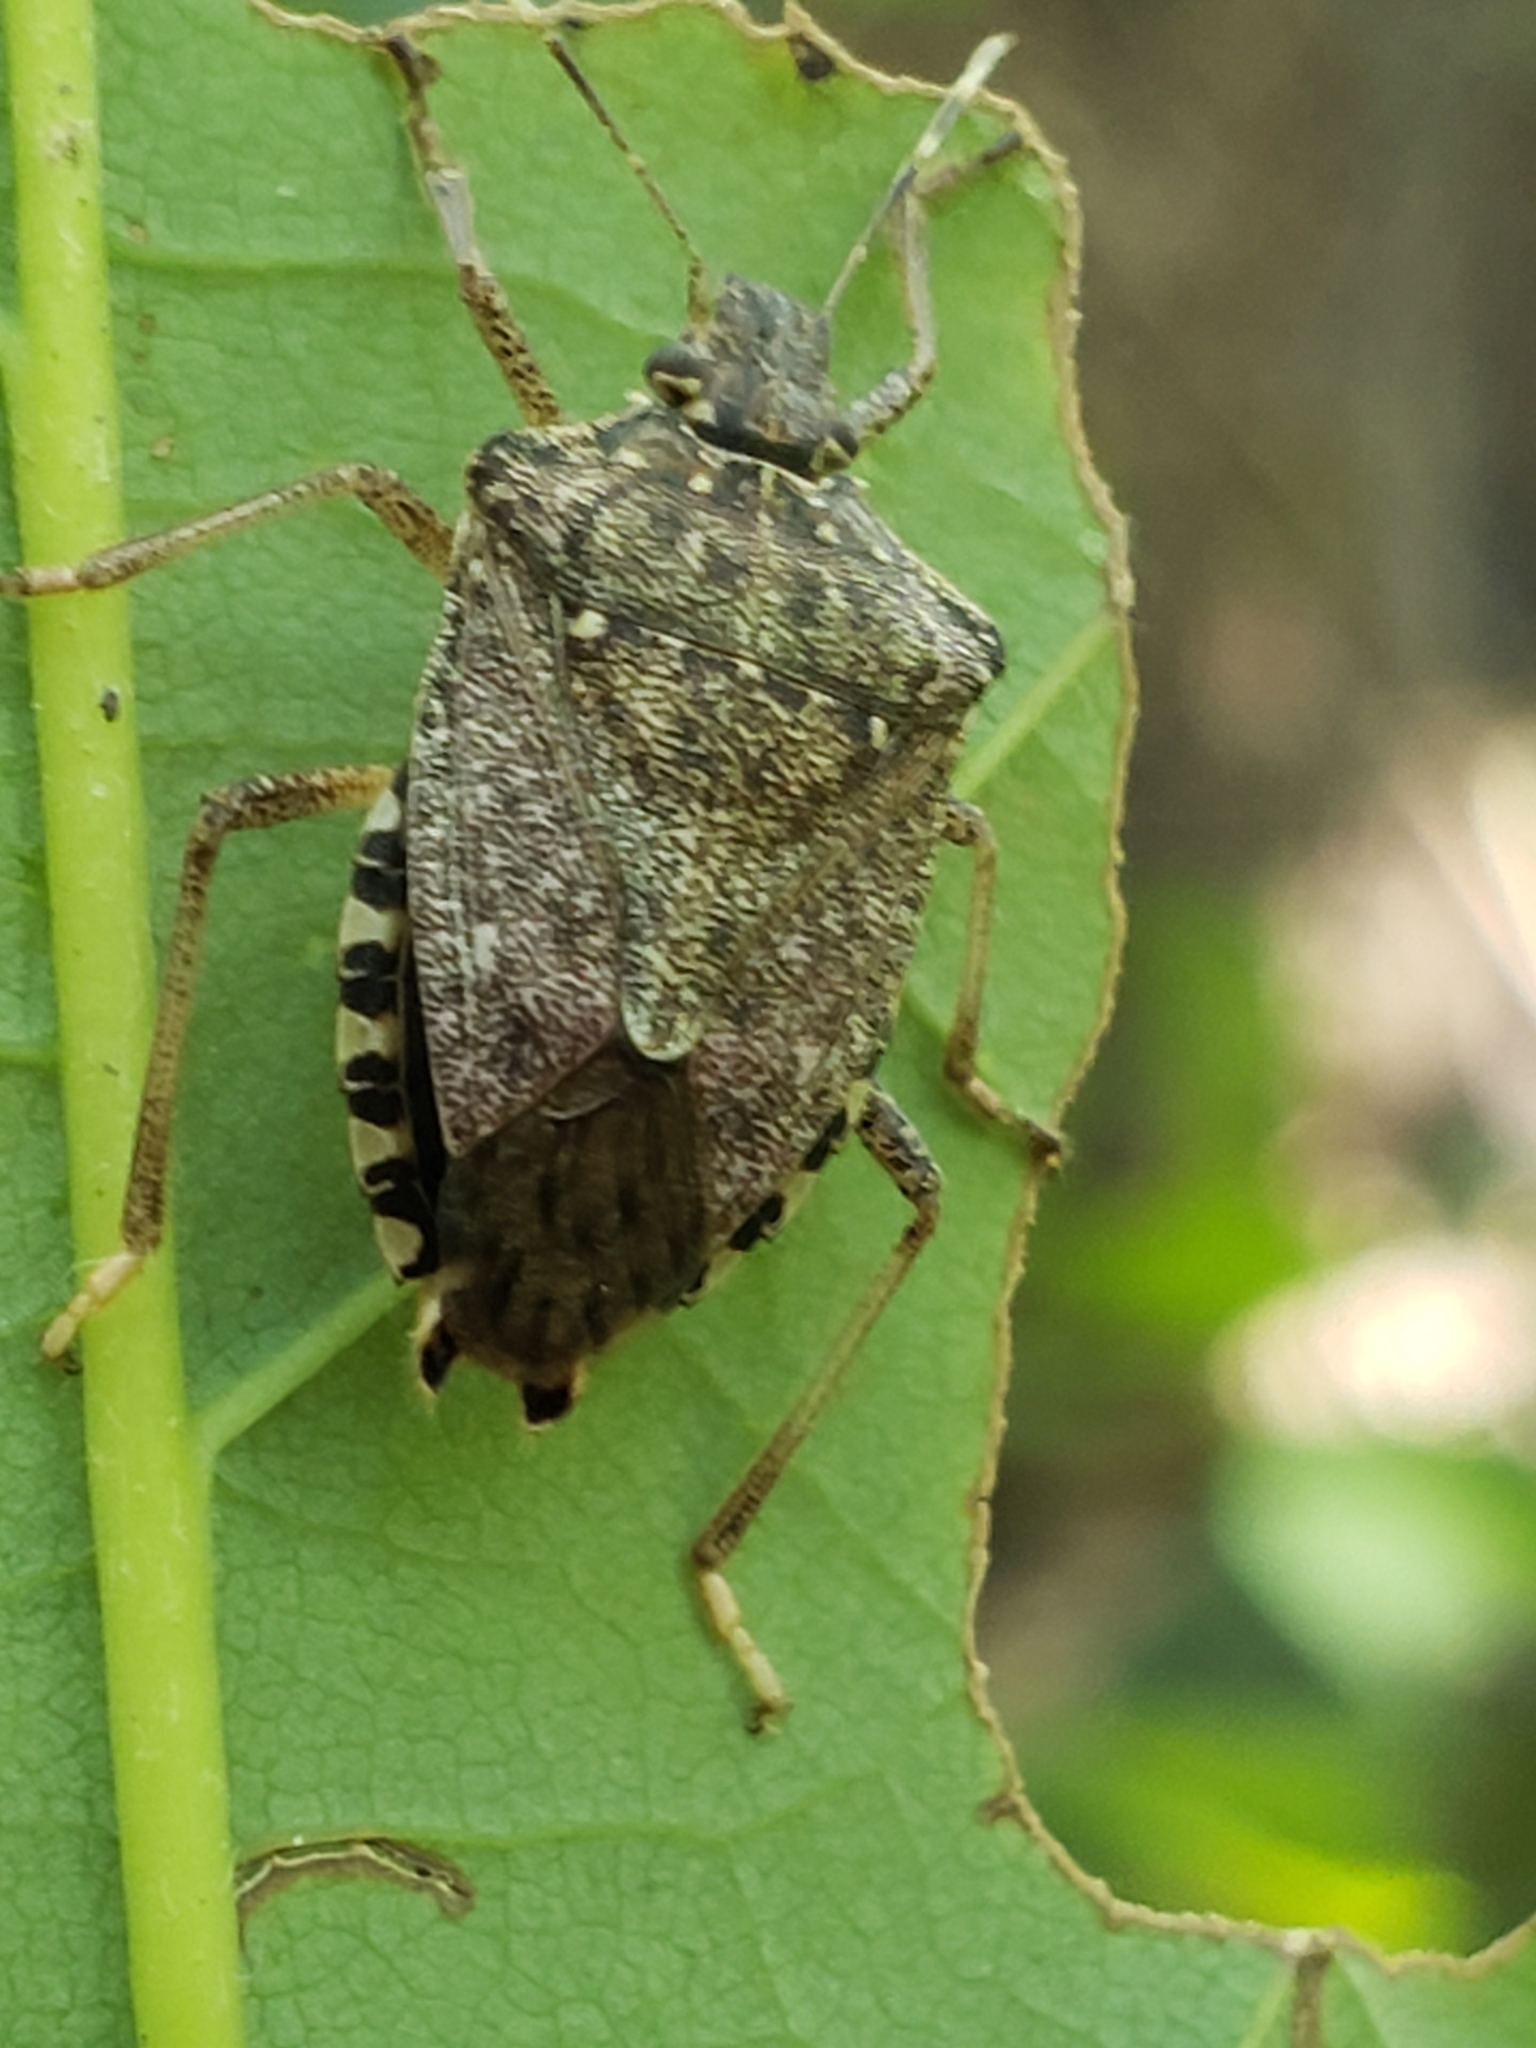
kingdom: Animalia
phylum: Arthropoda
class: Insecta
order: Hemiptera
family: Pentatomidae
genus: Halyomorpha
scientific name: Halyomorpha halys
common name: Brown marmorated stink bug
